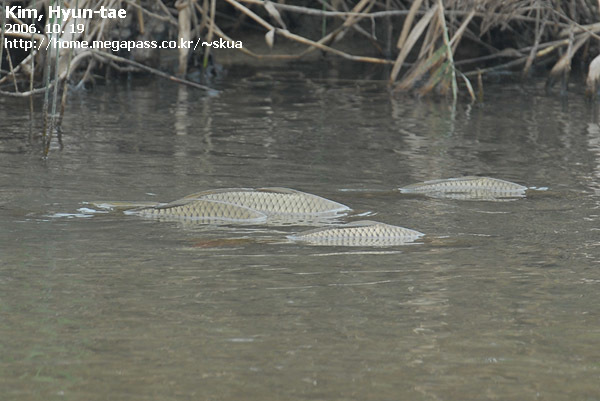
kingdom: Animalia
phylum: Chordata
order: Cypriniformes
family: Cyprinidae
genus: Cyprinus
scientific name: Cyprinus rubrofuscus
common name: Koi
